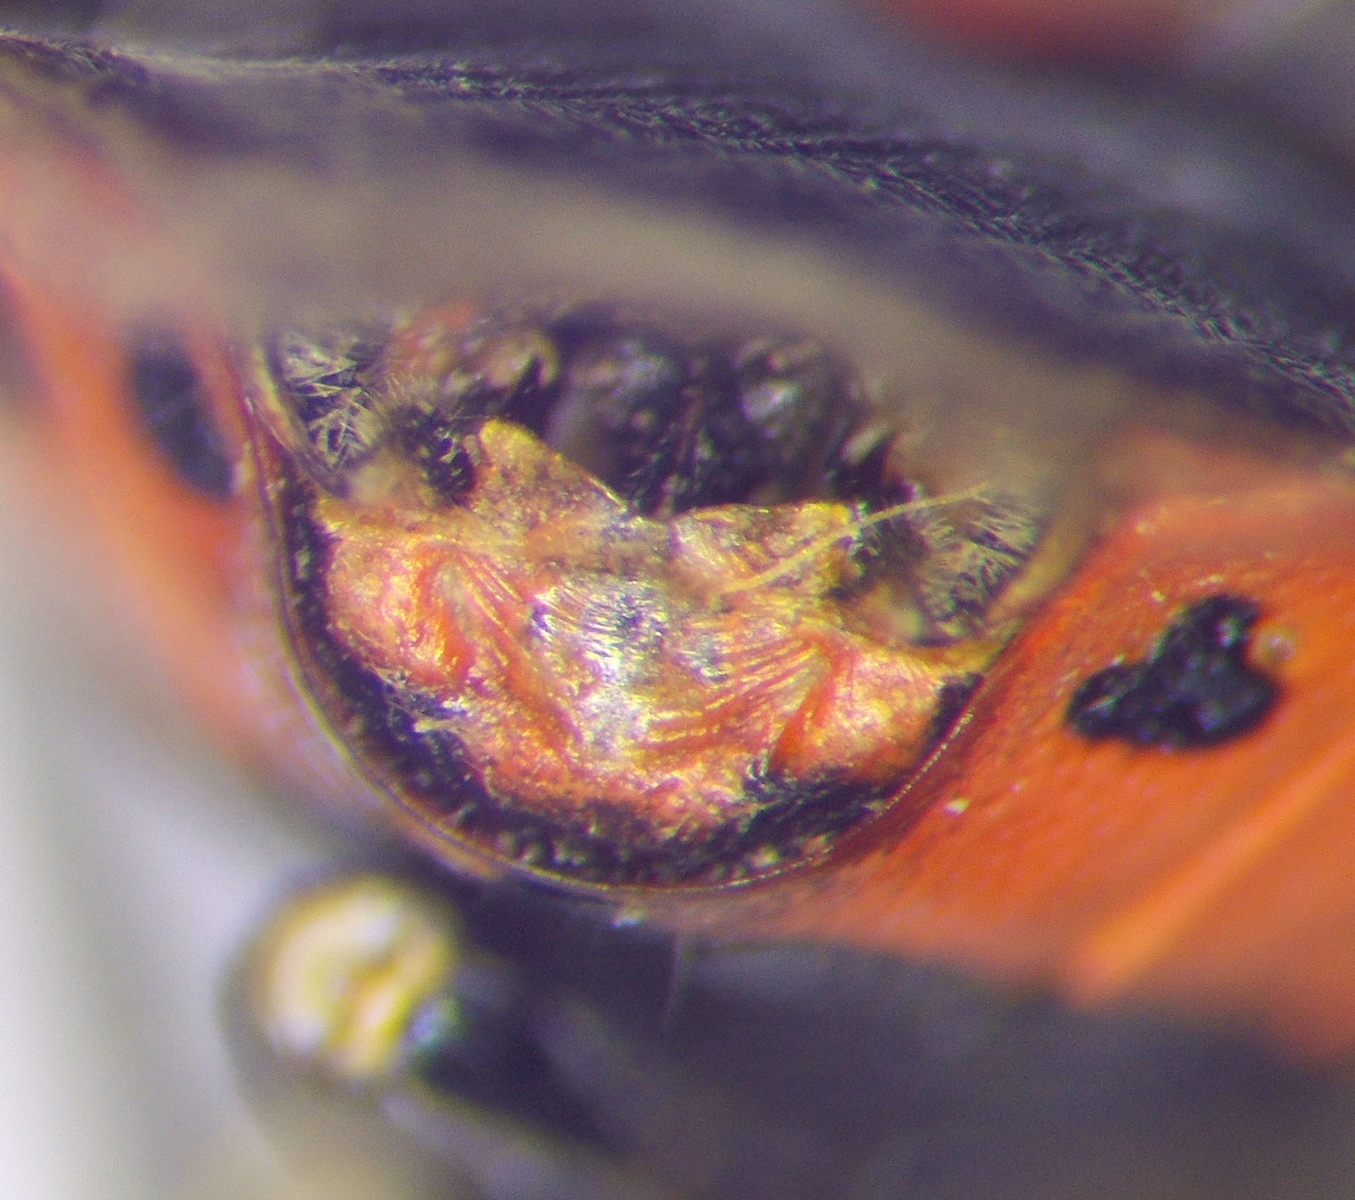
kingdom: Animalia
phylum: Arthropoda
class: Insecta
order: Hemiptera
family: Pentatomidae
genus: Eurydema
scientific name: Eurydema ornata
